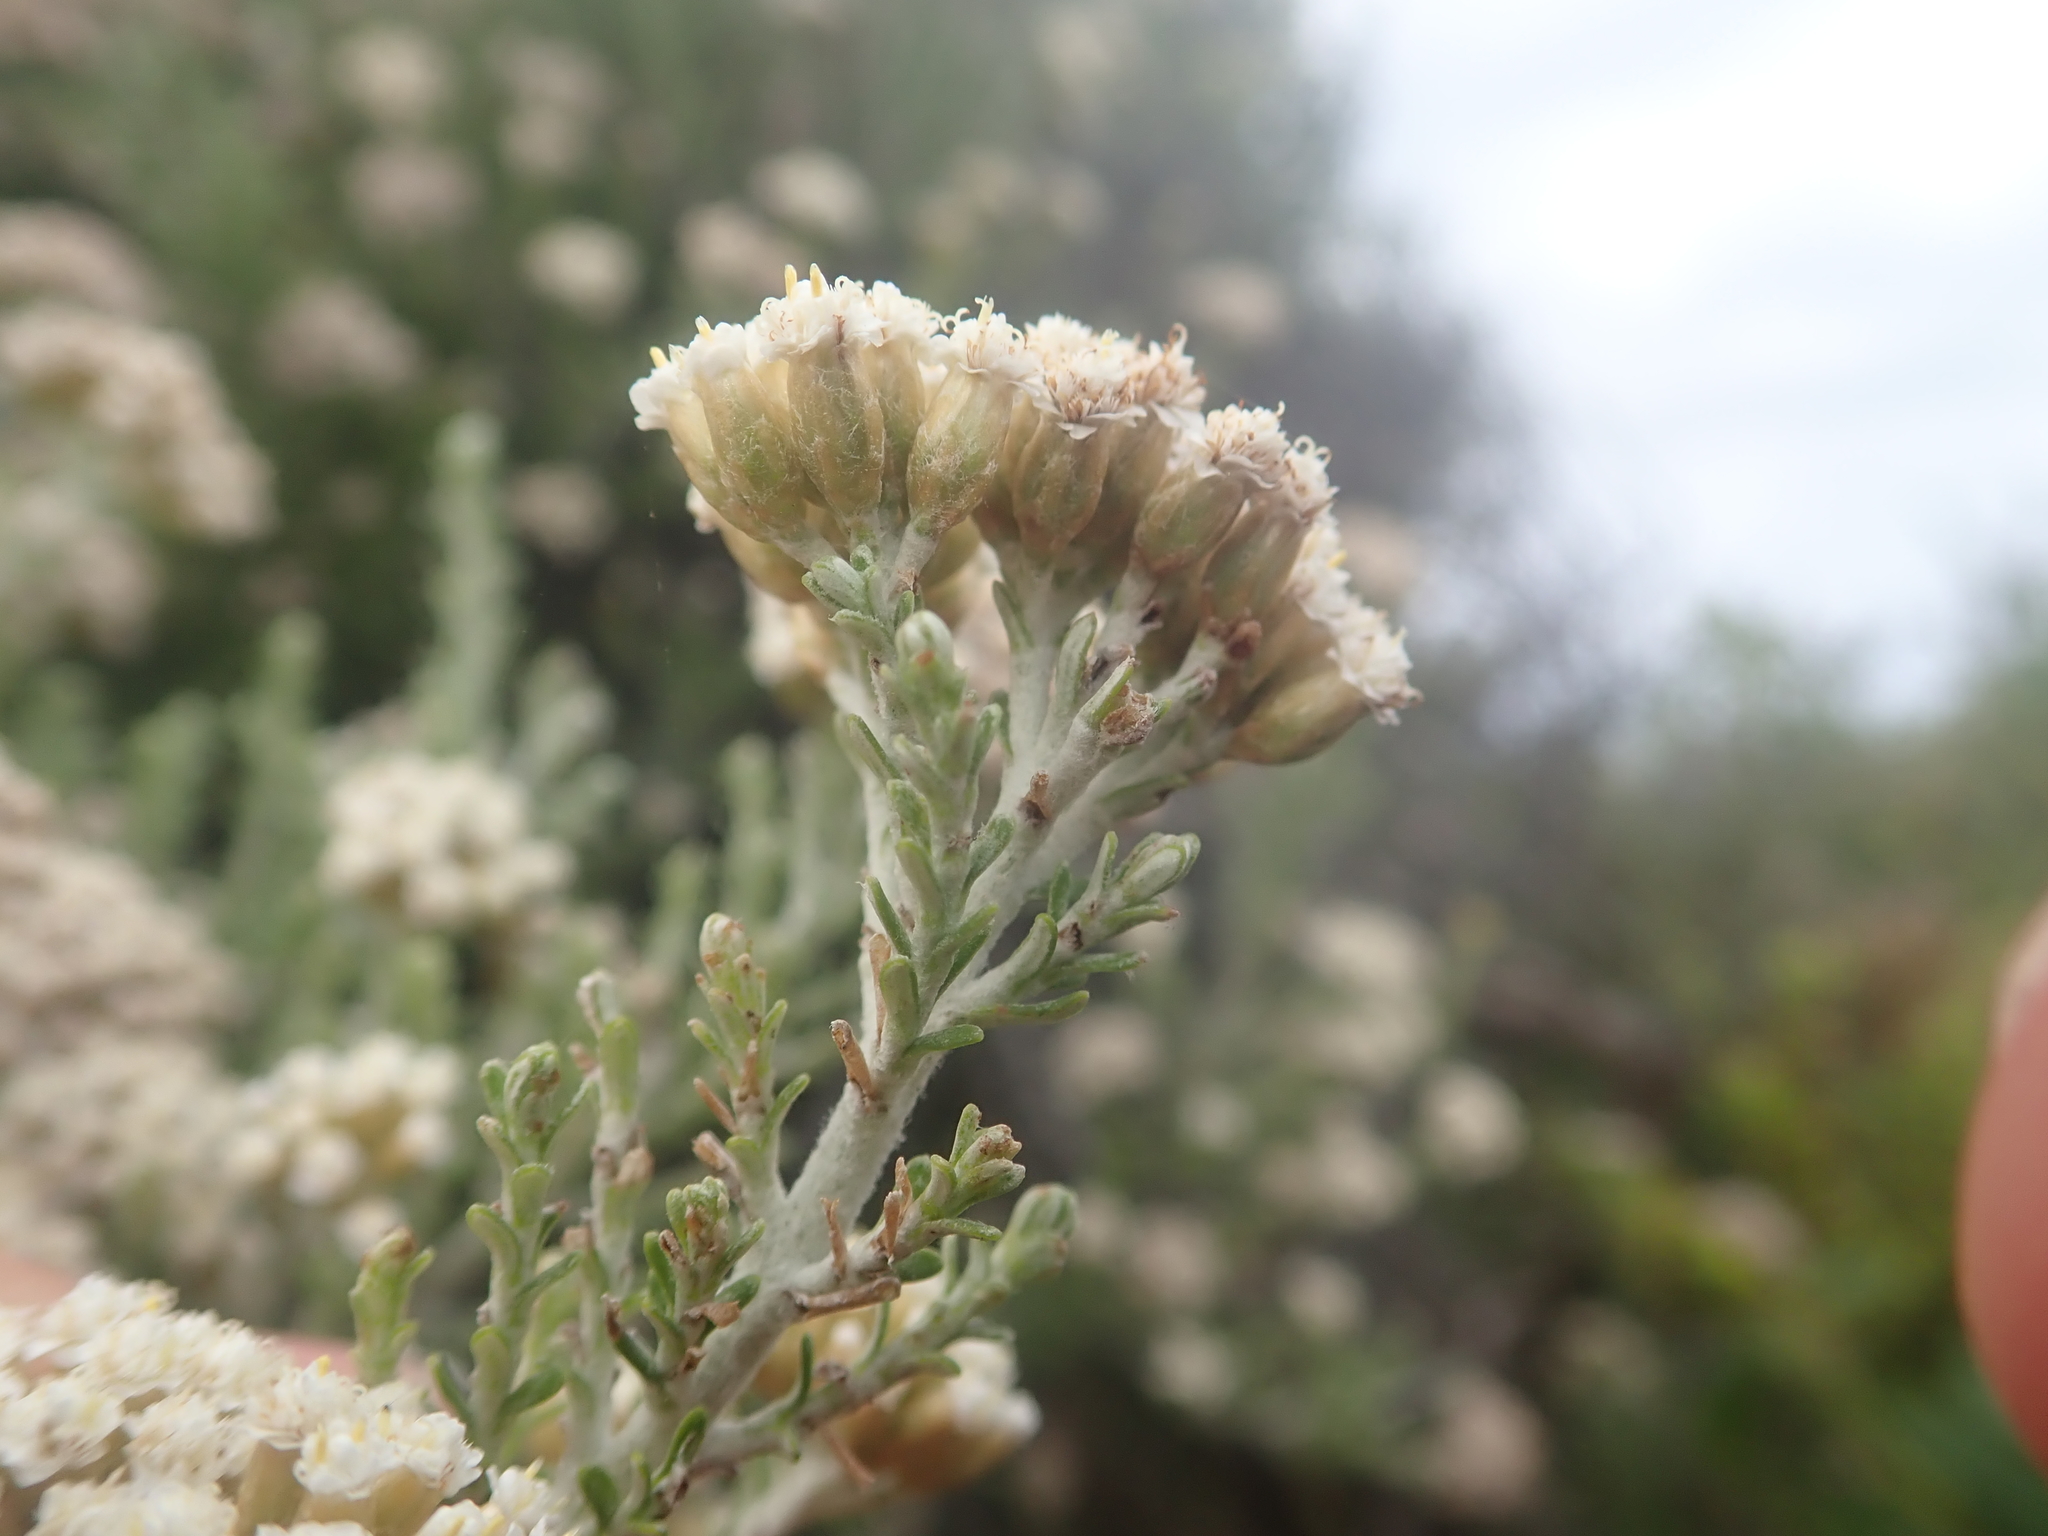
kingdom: Plantae
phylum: Tracheophyta
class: Magnoliopsida
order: Asterales
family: Asteraceae
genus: Ozothamnus
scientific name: Ozothamnus leptophyllus
